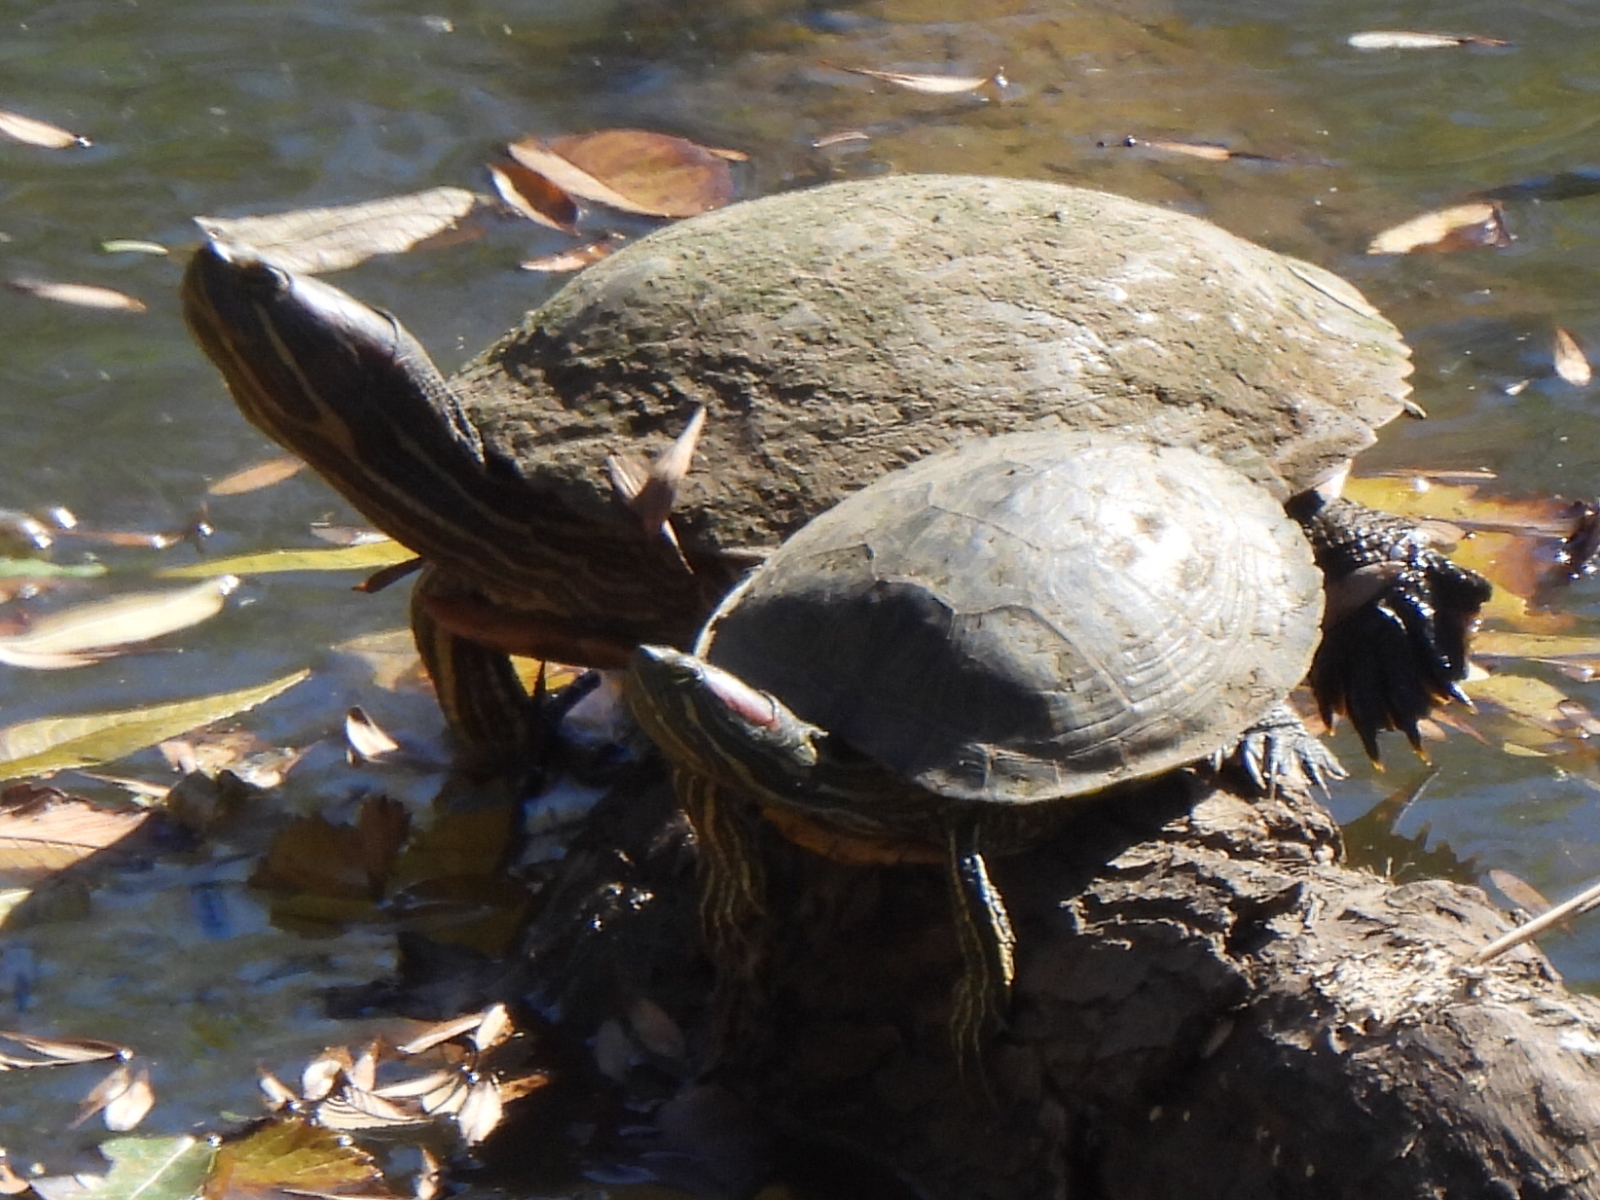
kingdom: Animalia
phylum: Chordata
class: Testudines
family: Emydidae
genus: Trachemys
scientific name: Trachemys scripta
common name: Slider
